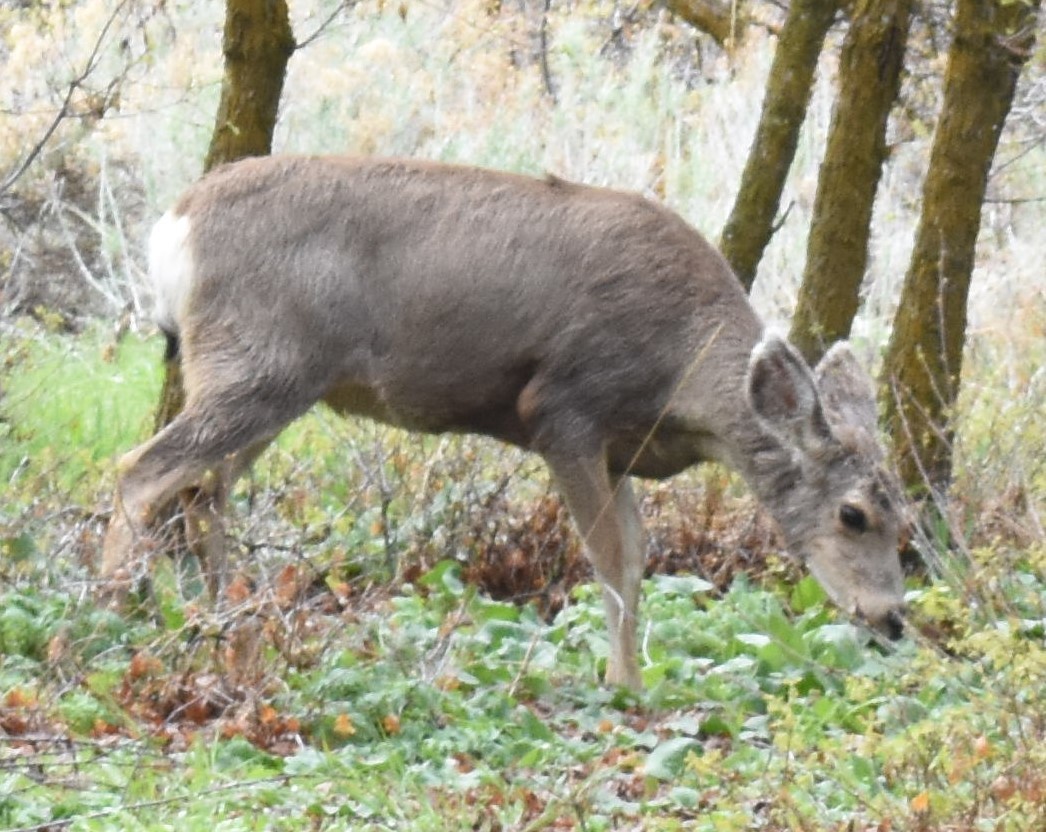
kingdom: Animalia
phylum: Chordata
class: Mammalia
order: Artiodactyla
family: Cervidae
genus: Odocoileus
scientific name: Odocoileus hemionus
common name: Mule deer
